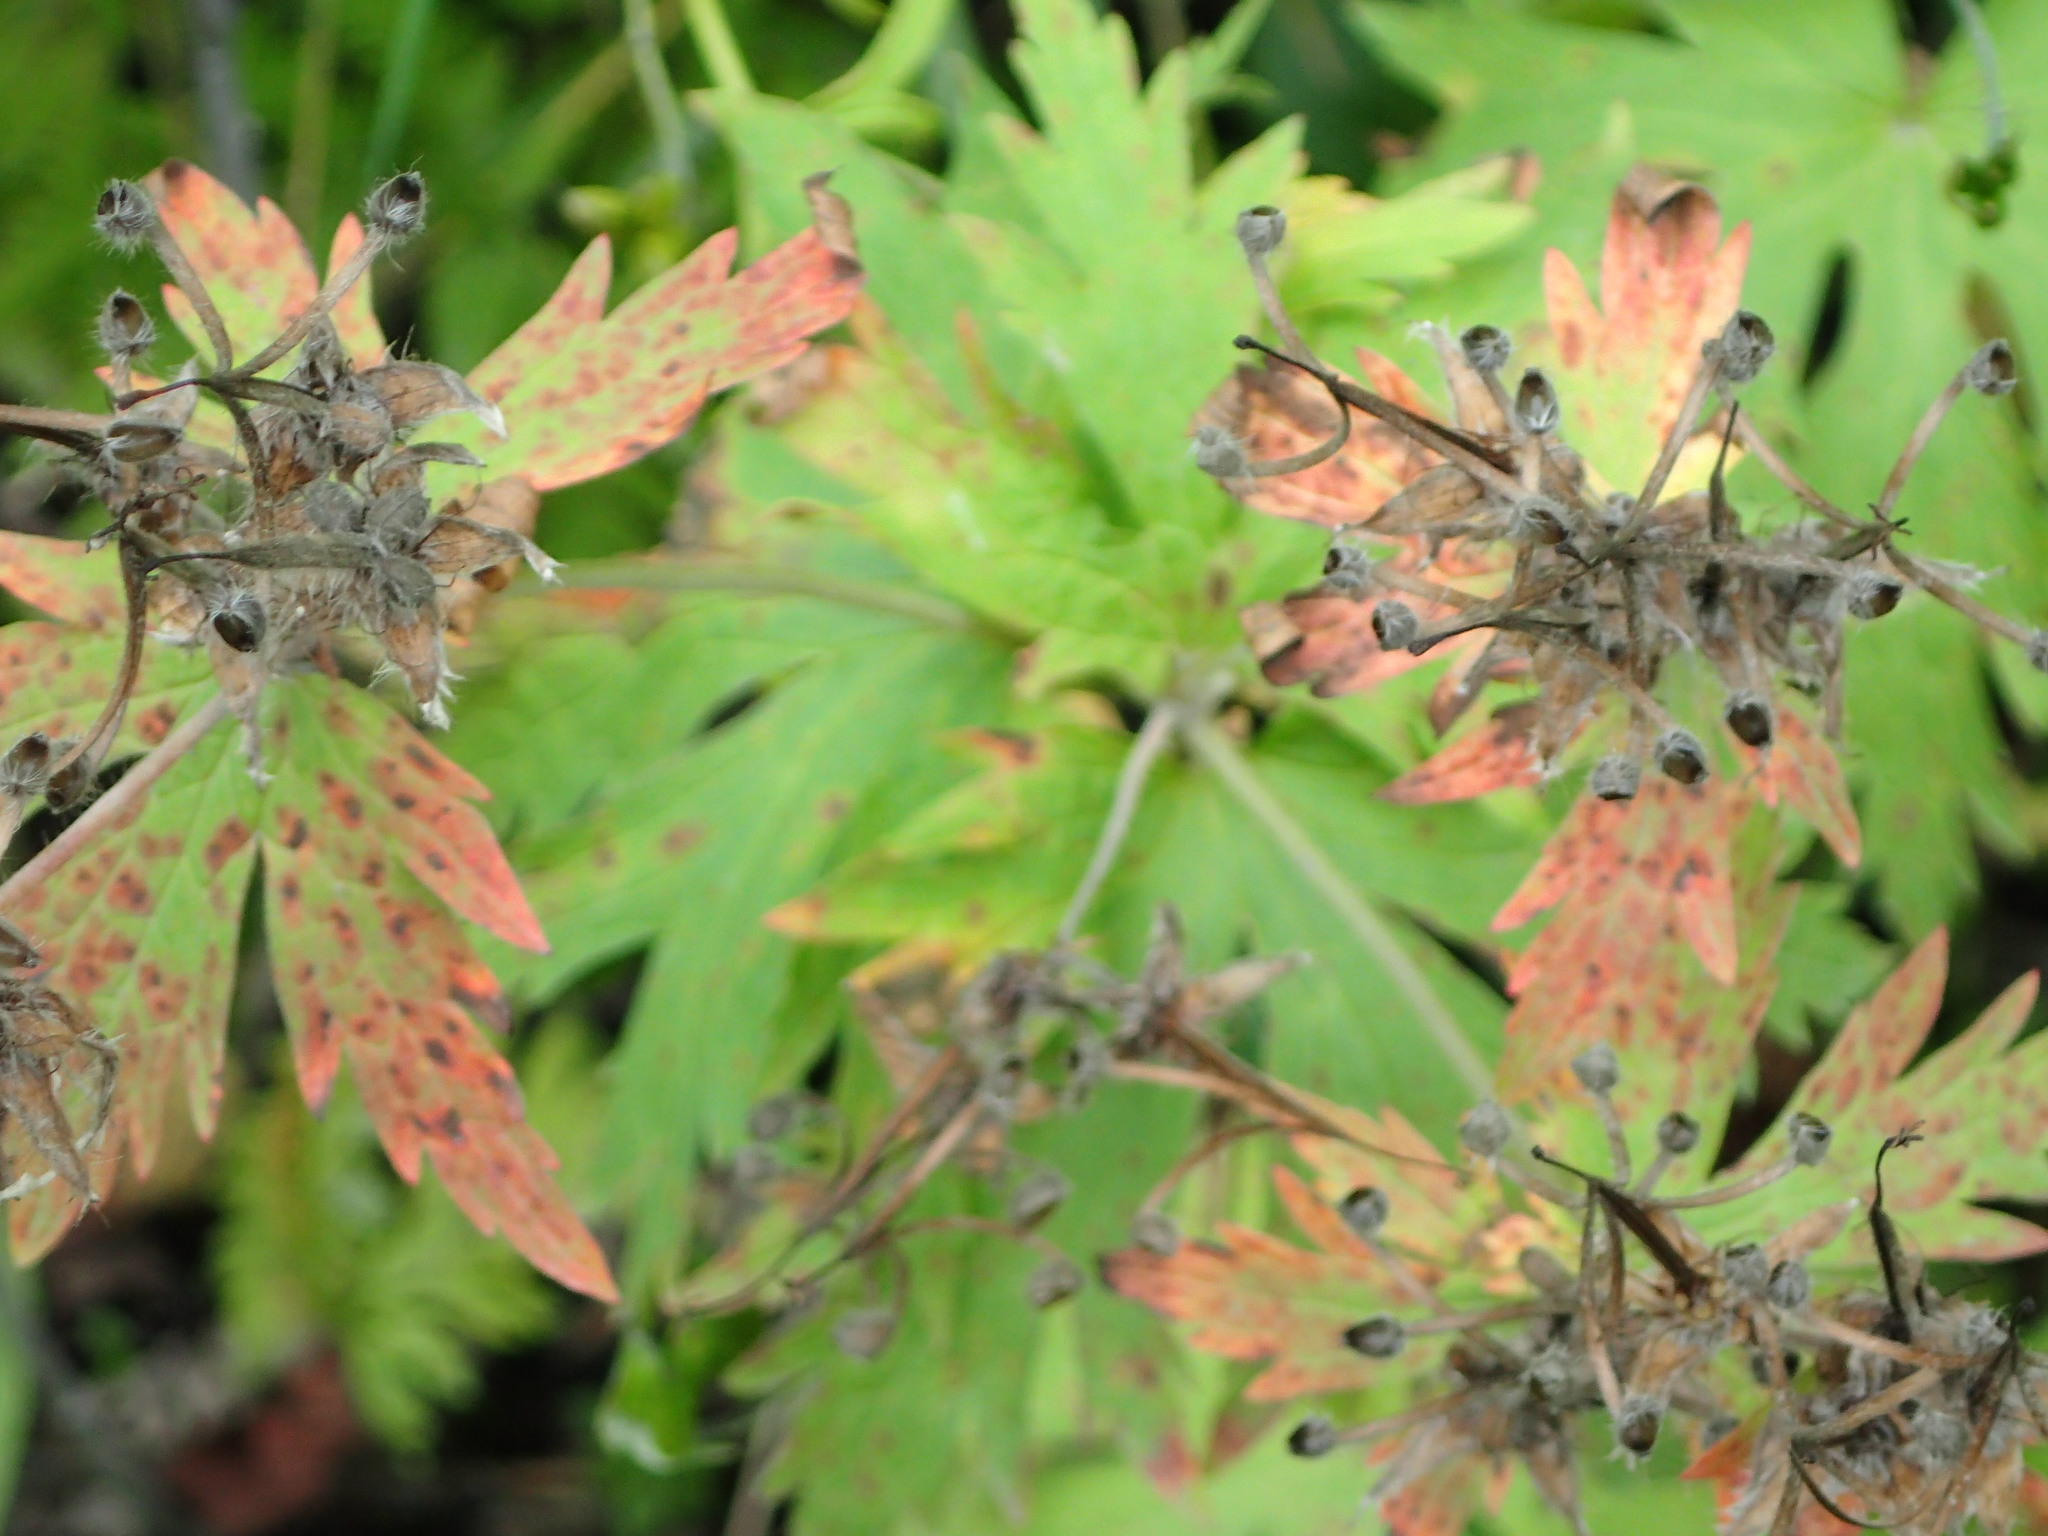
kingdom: Plantae
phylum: Tracheophyta
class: Magnoliopsida
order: Geraniales
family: Geraniaceae
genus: Geranium
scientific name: Geranium erianthum
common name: Northern crane's-bill
